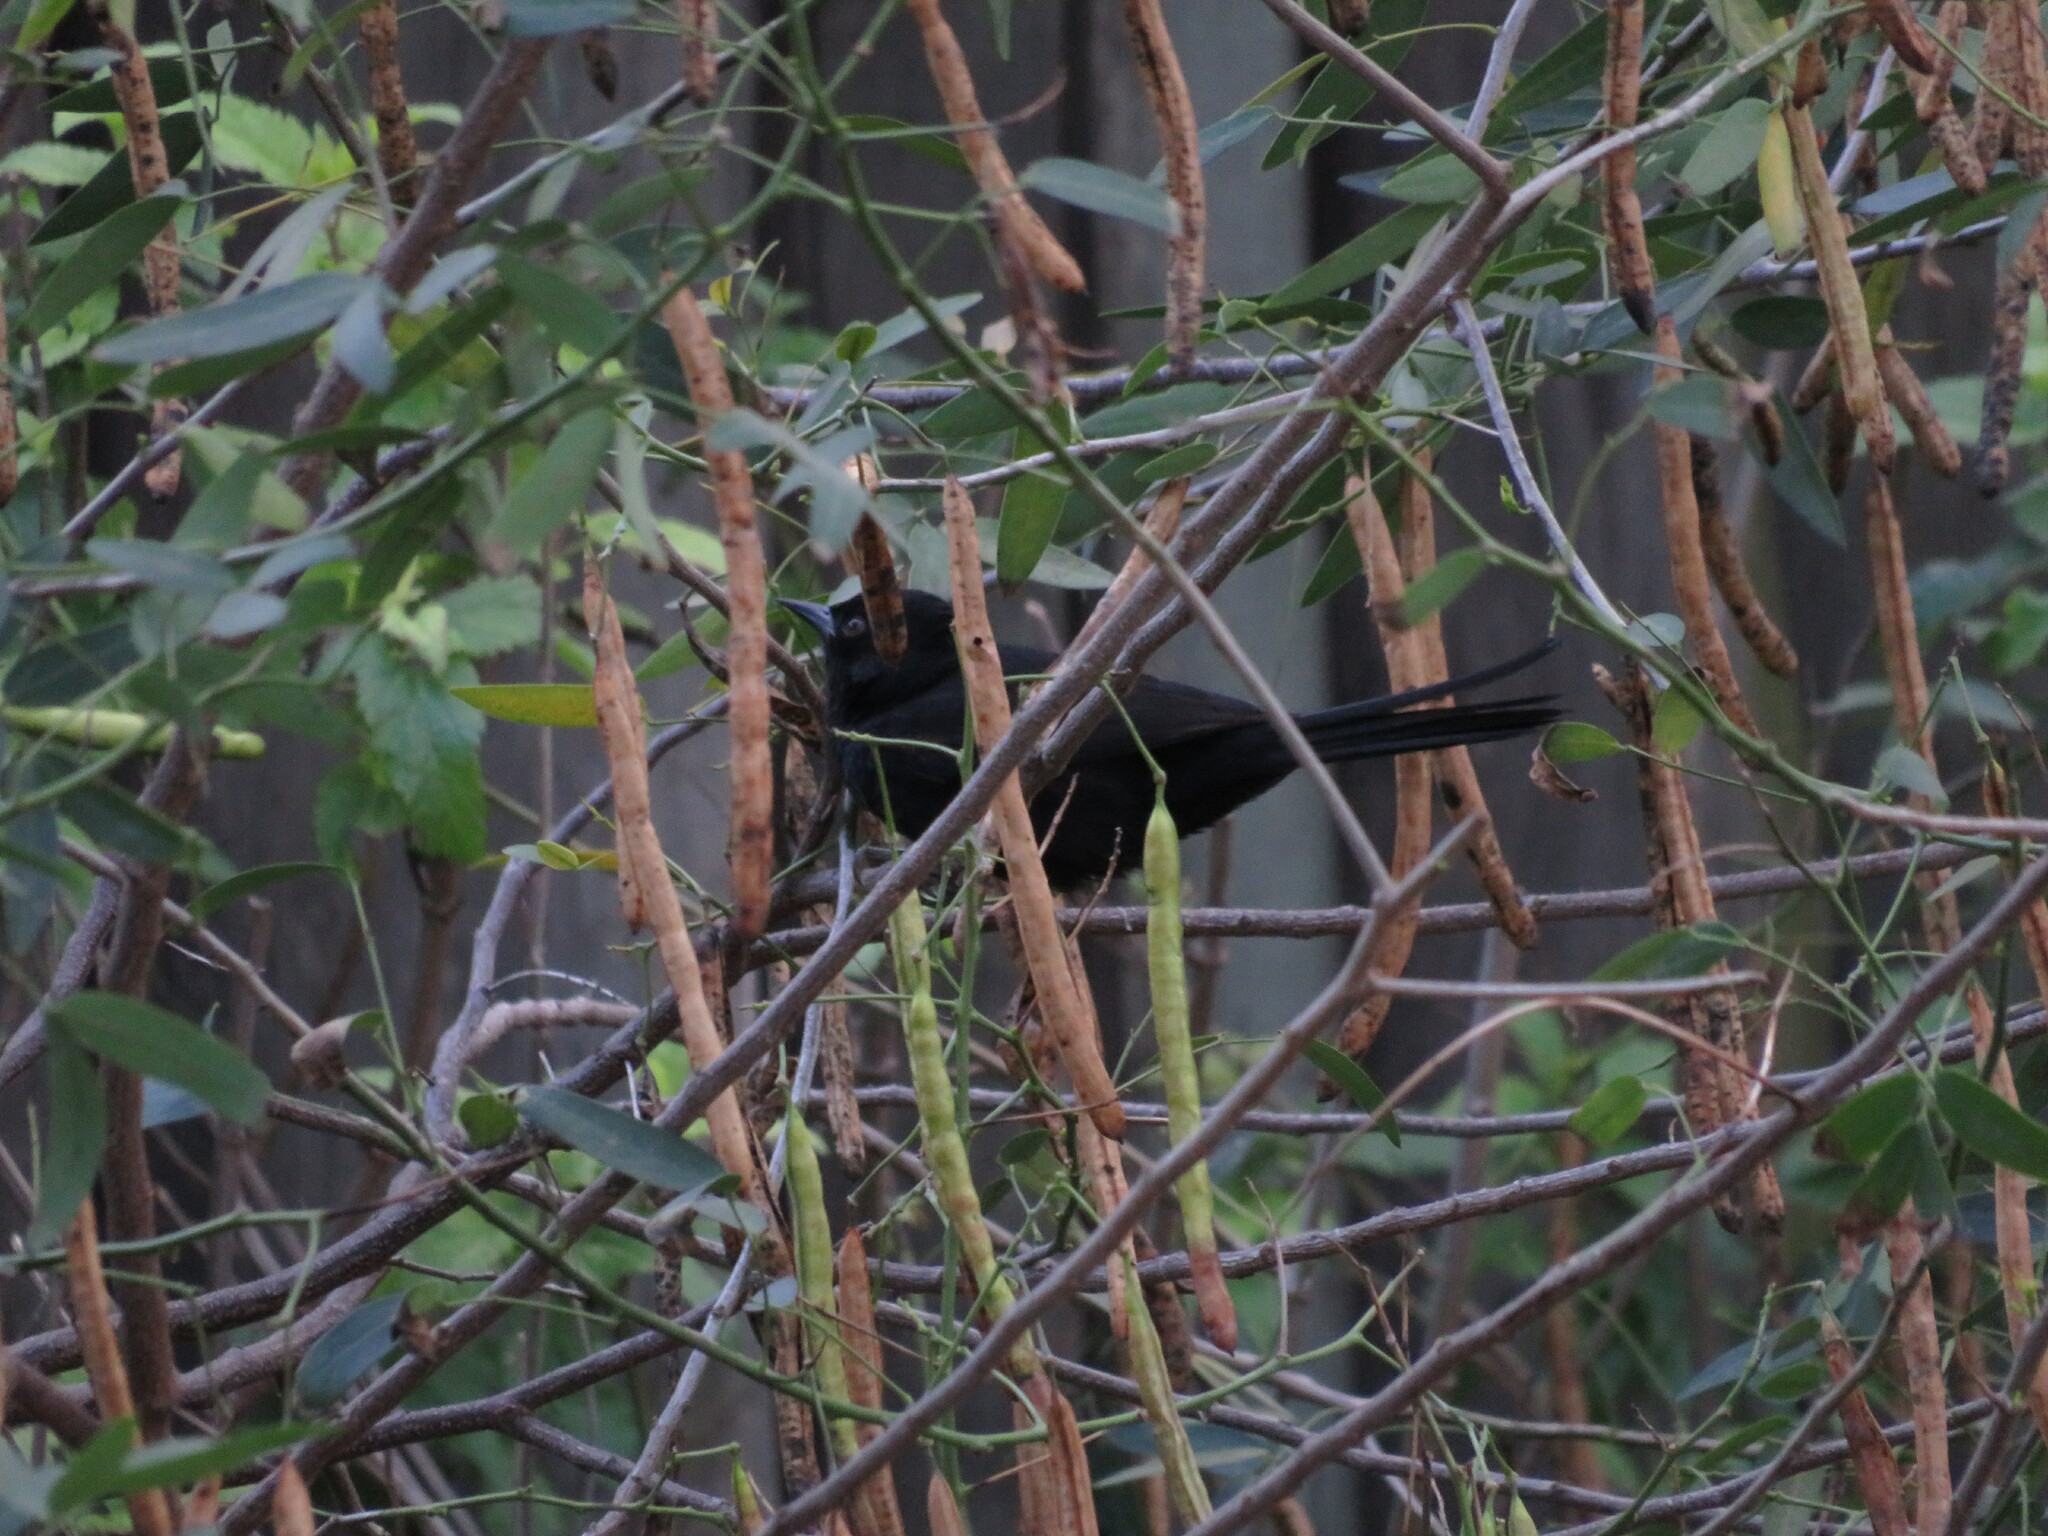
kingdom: Animalia
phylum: Chordata
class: Aves
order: Passeriformes
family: Icteridae
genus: Icterus
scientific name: Icterus cayanensis
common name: Epaulet oriole
